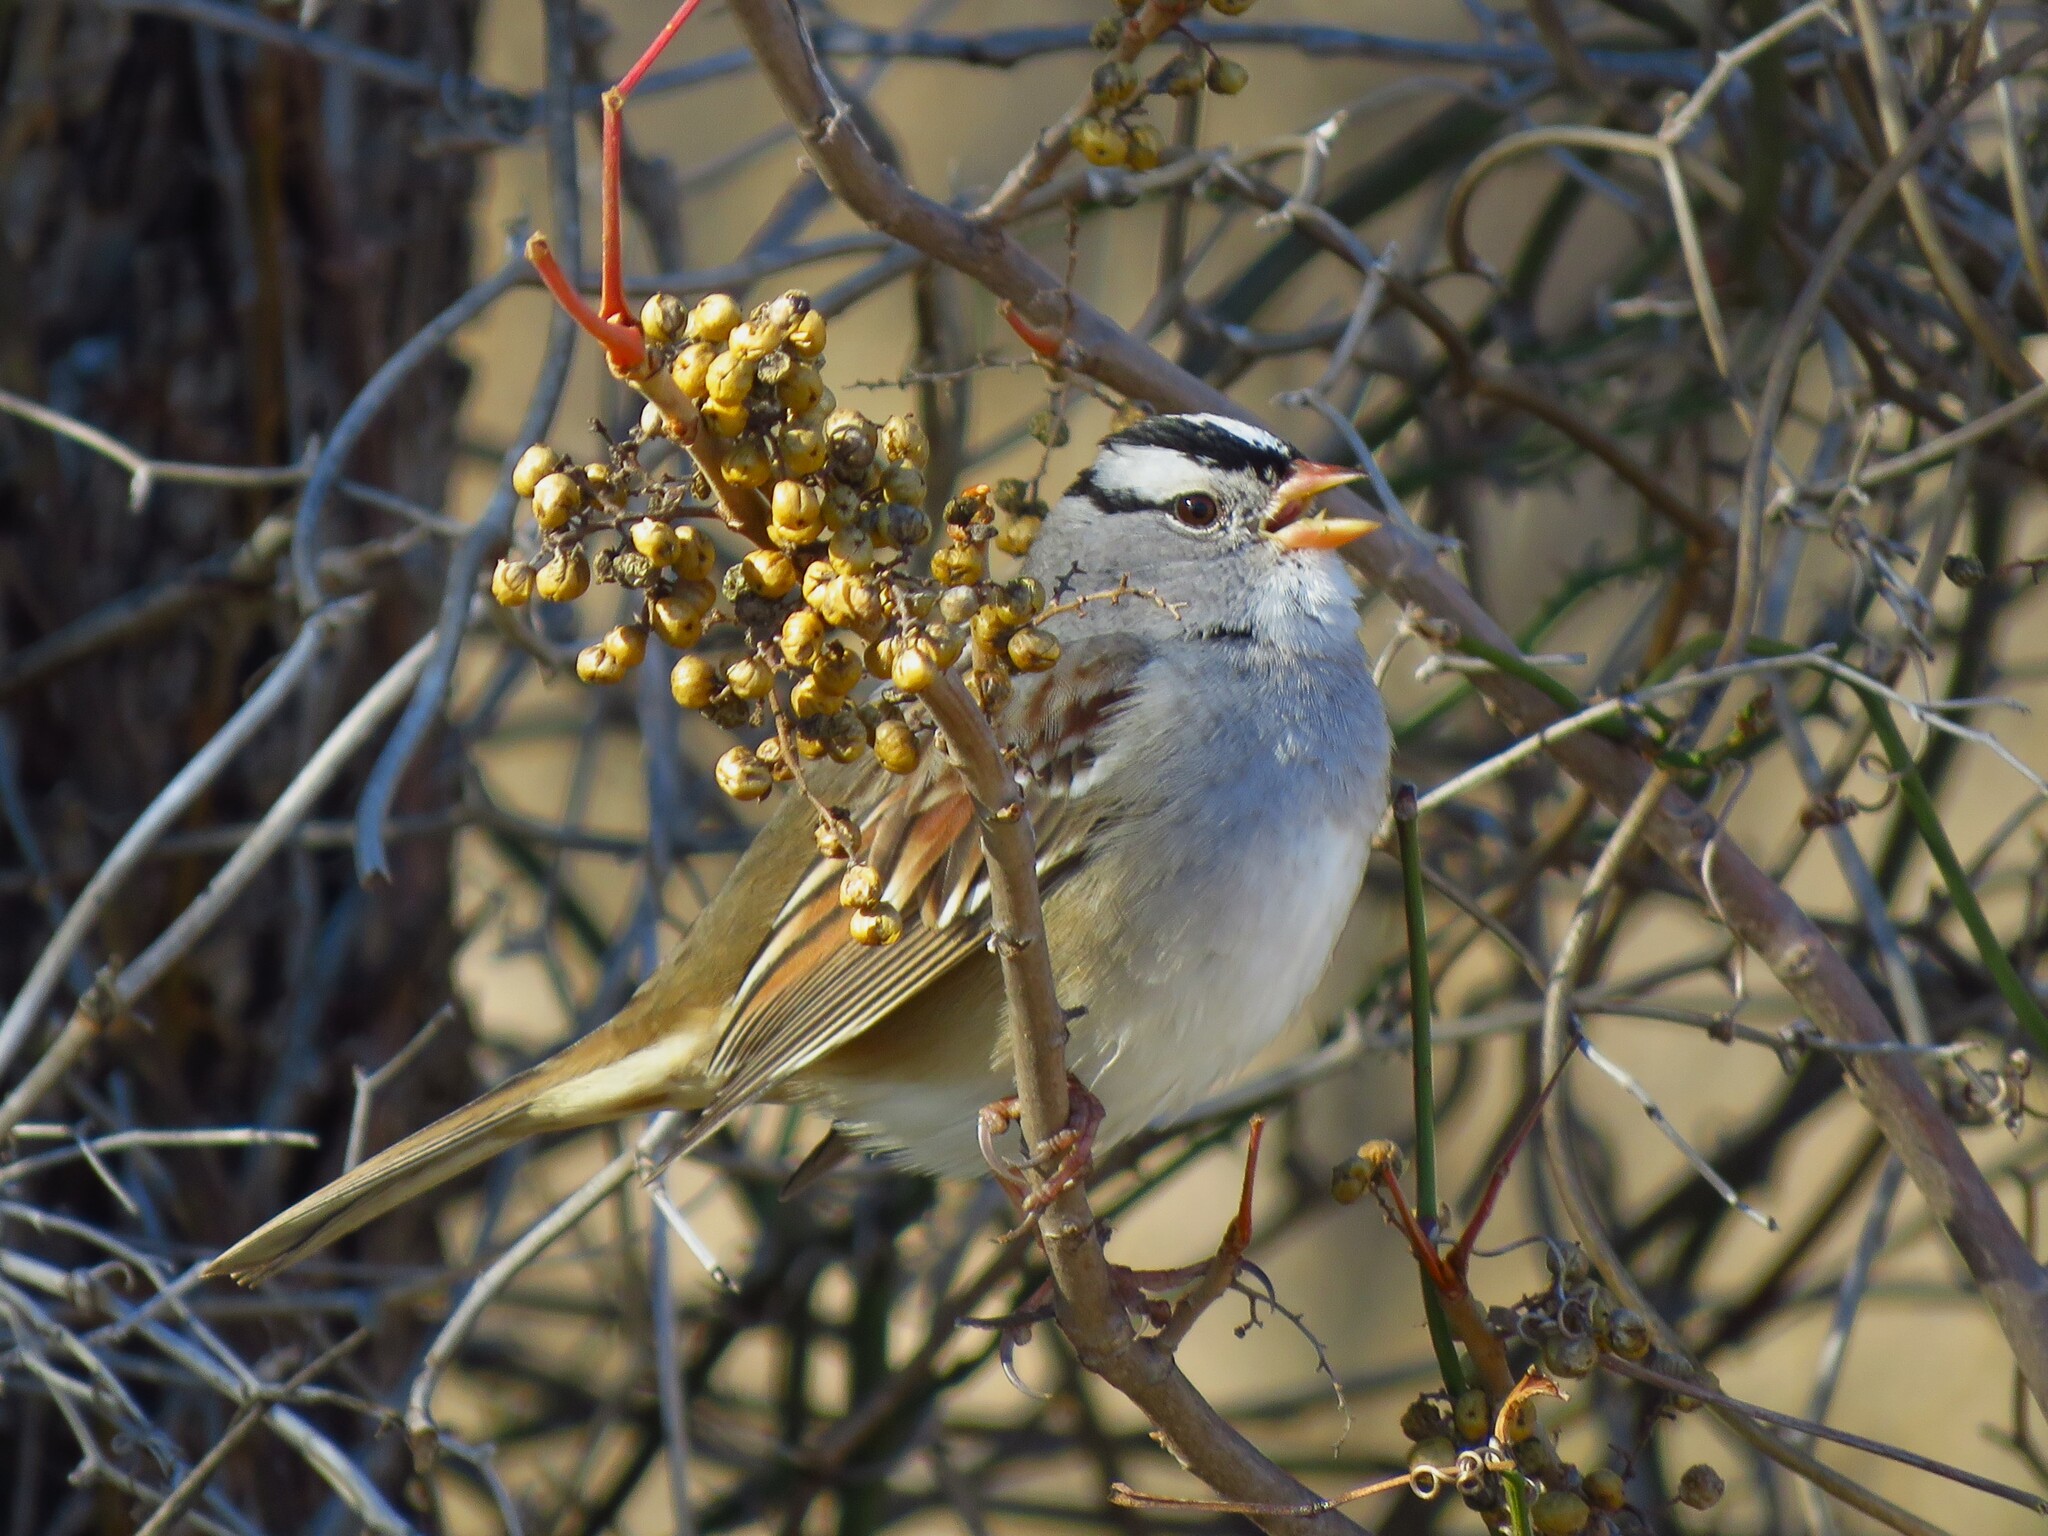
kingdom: Animalia
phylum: Chordata
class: Aves
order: Passeriformes
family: Passerellidae
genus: Zonotrichia
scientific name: Zonotrichia leucophrys
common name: White-crowned sparrow
